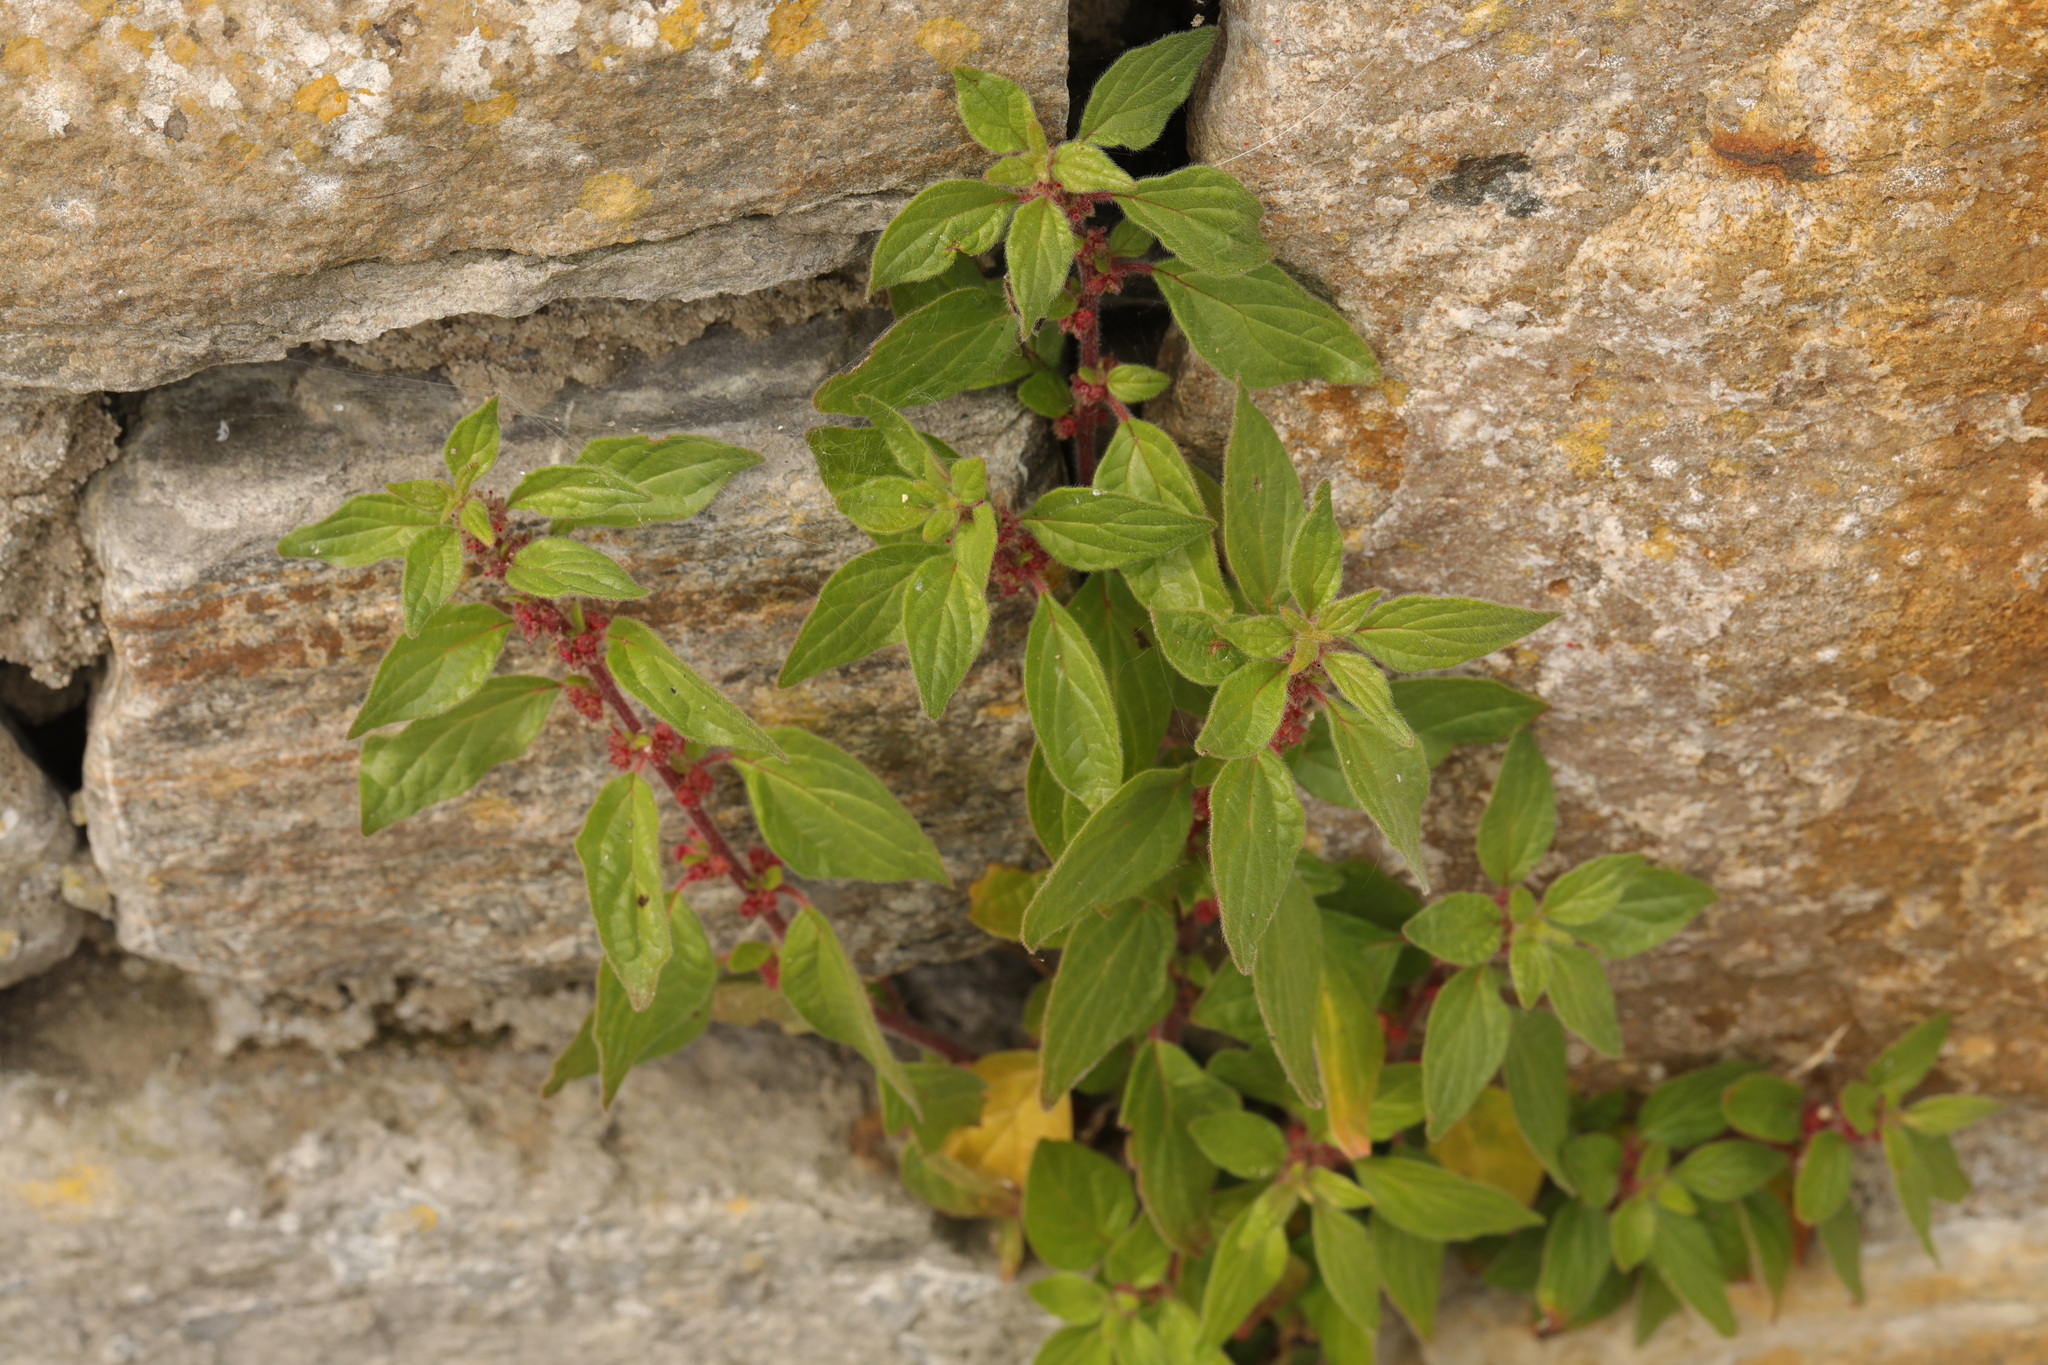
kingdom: Plantae
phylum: Tracheophyta
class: Magnoliopsida
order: Rosales
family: Urticaceae
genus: Parietaria
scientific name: Parietaria judaica
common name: Pellitory-of-the-wall
